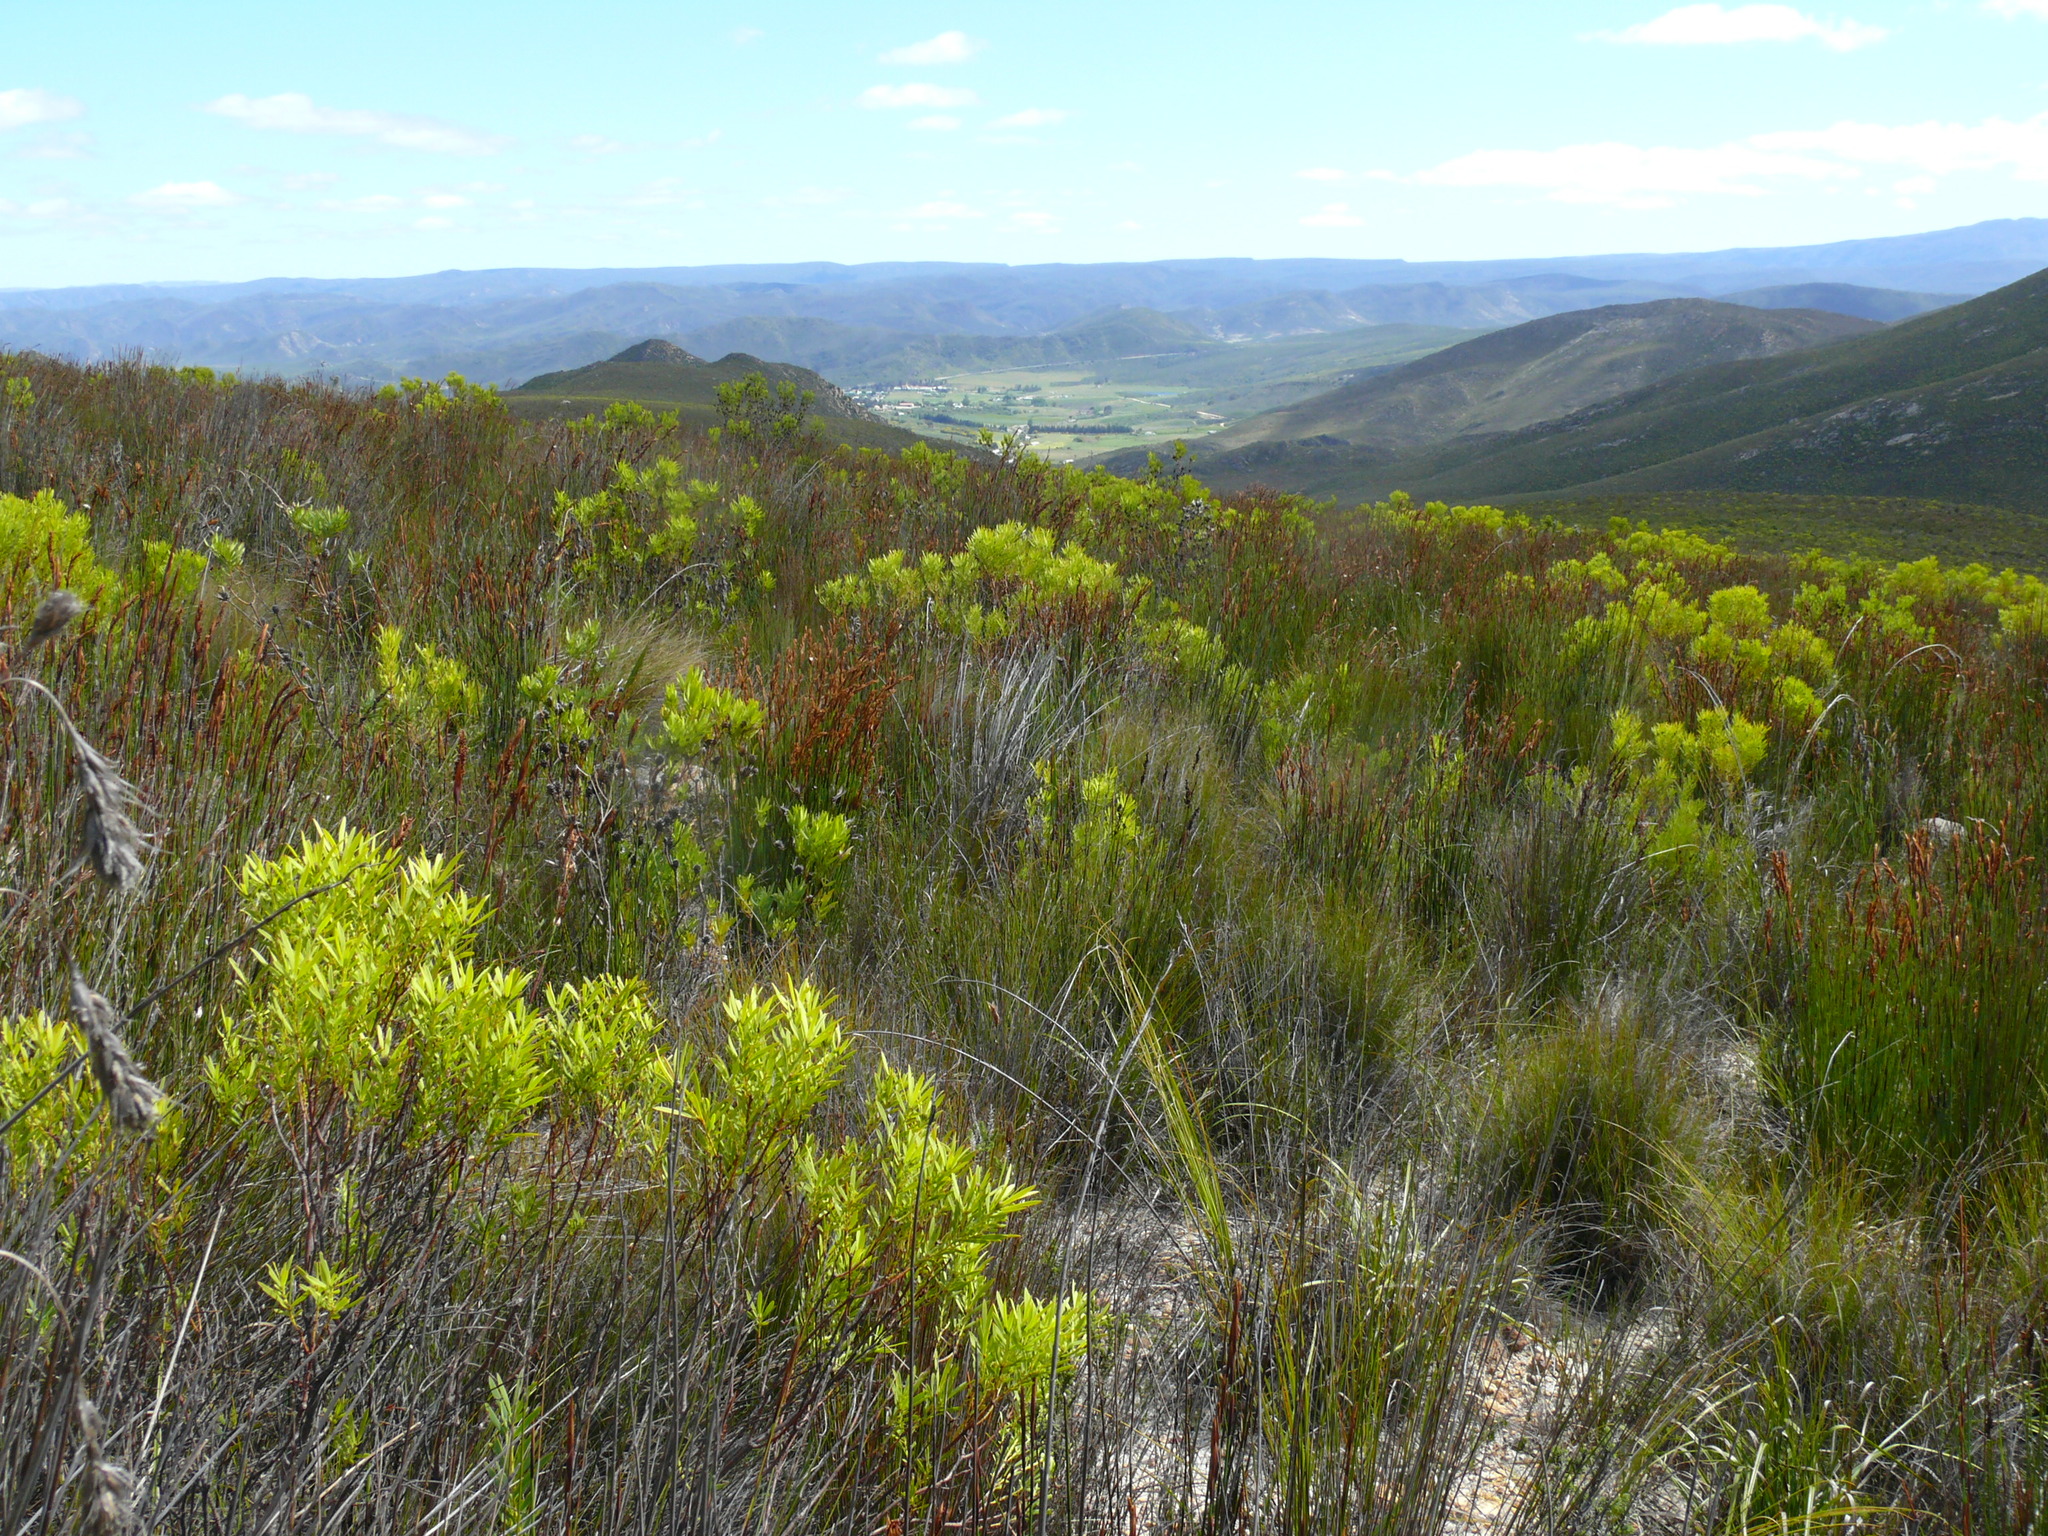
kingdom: Plantae
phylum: Tracheophyta
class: Liliopsida
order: Poales
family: Restionaceae
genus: Elegia
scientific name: Elegia galpinii
